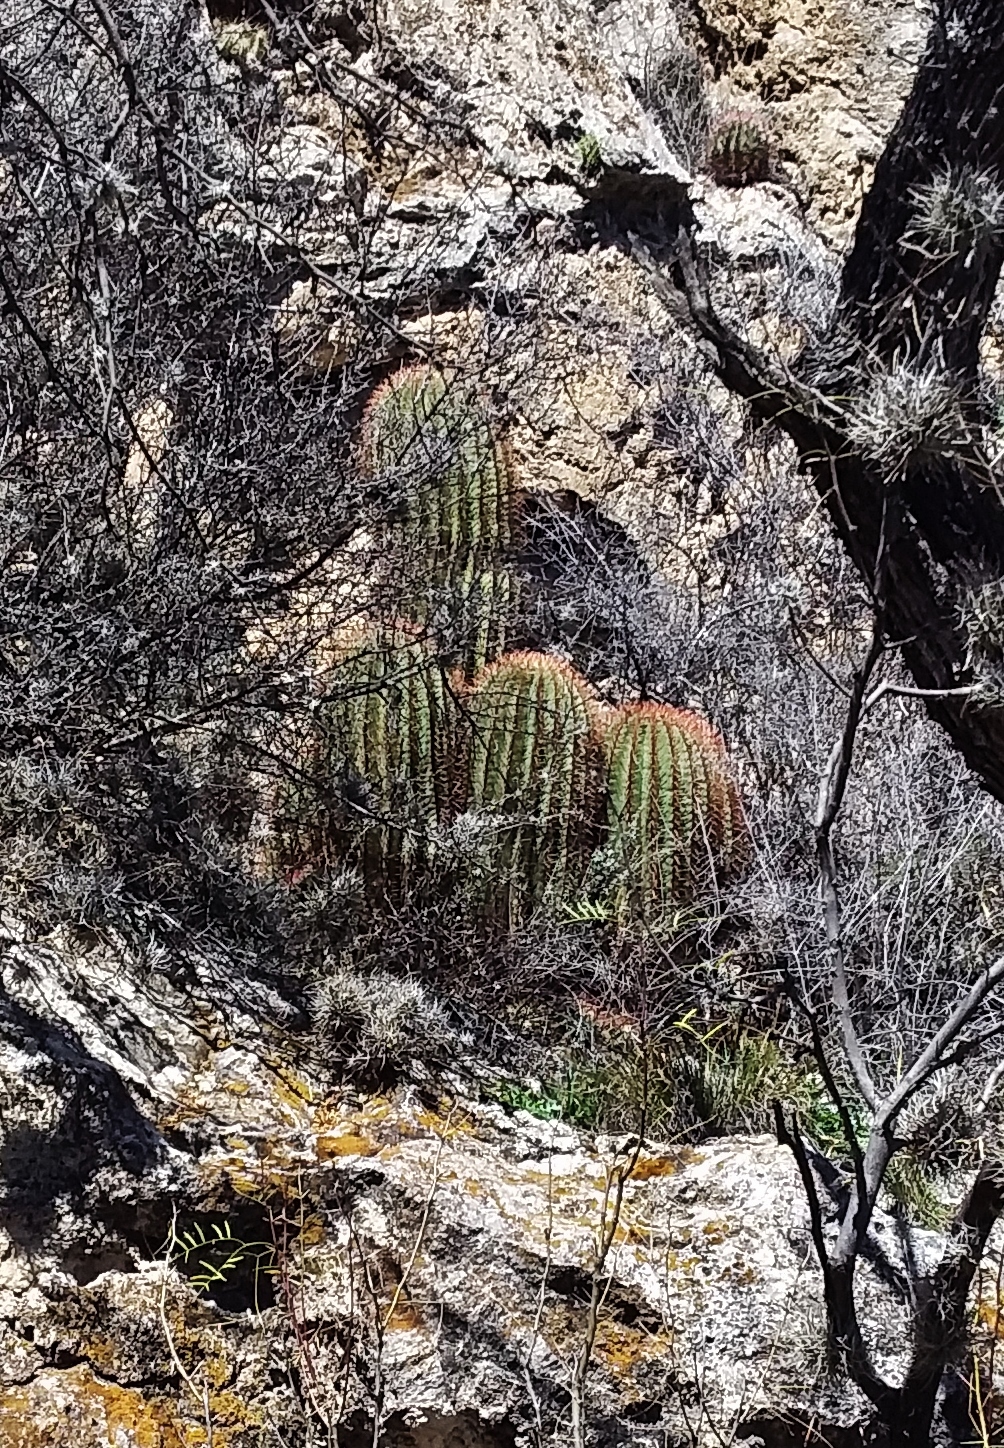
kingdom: Plantae
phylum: Tracheophyta
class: Magnoliopsida
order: Caryophyllales
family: Cactaceae
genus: Ferocactus
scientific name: Ferocactus pilosus
